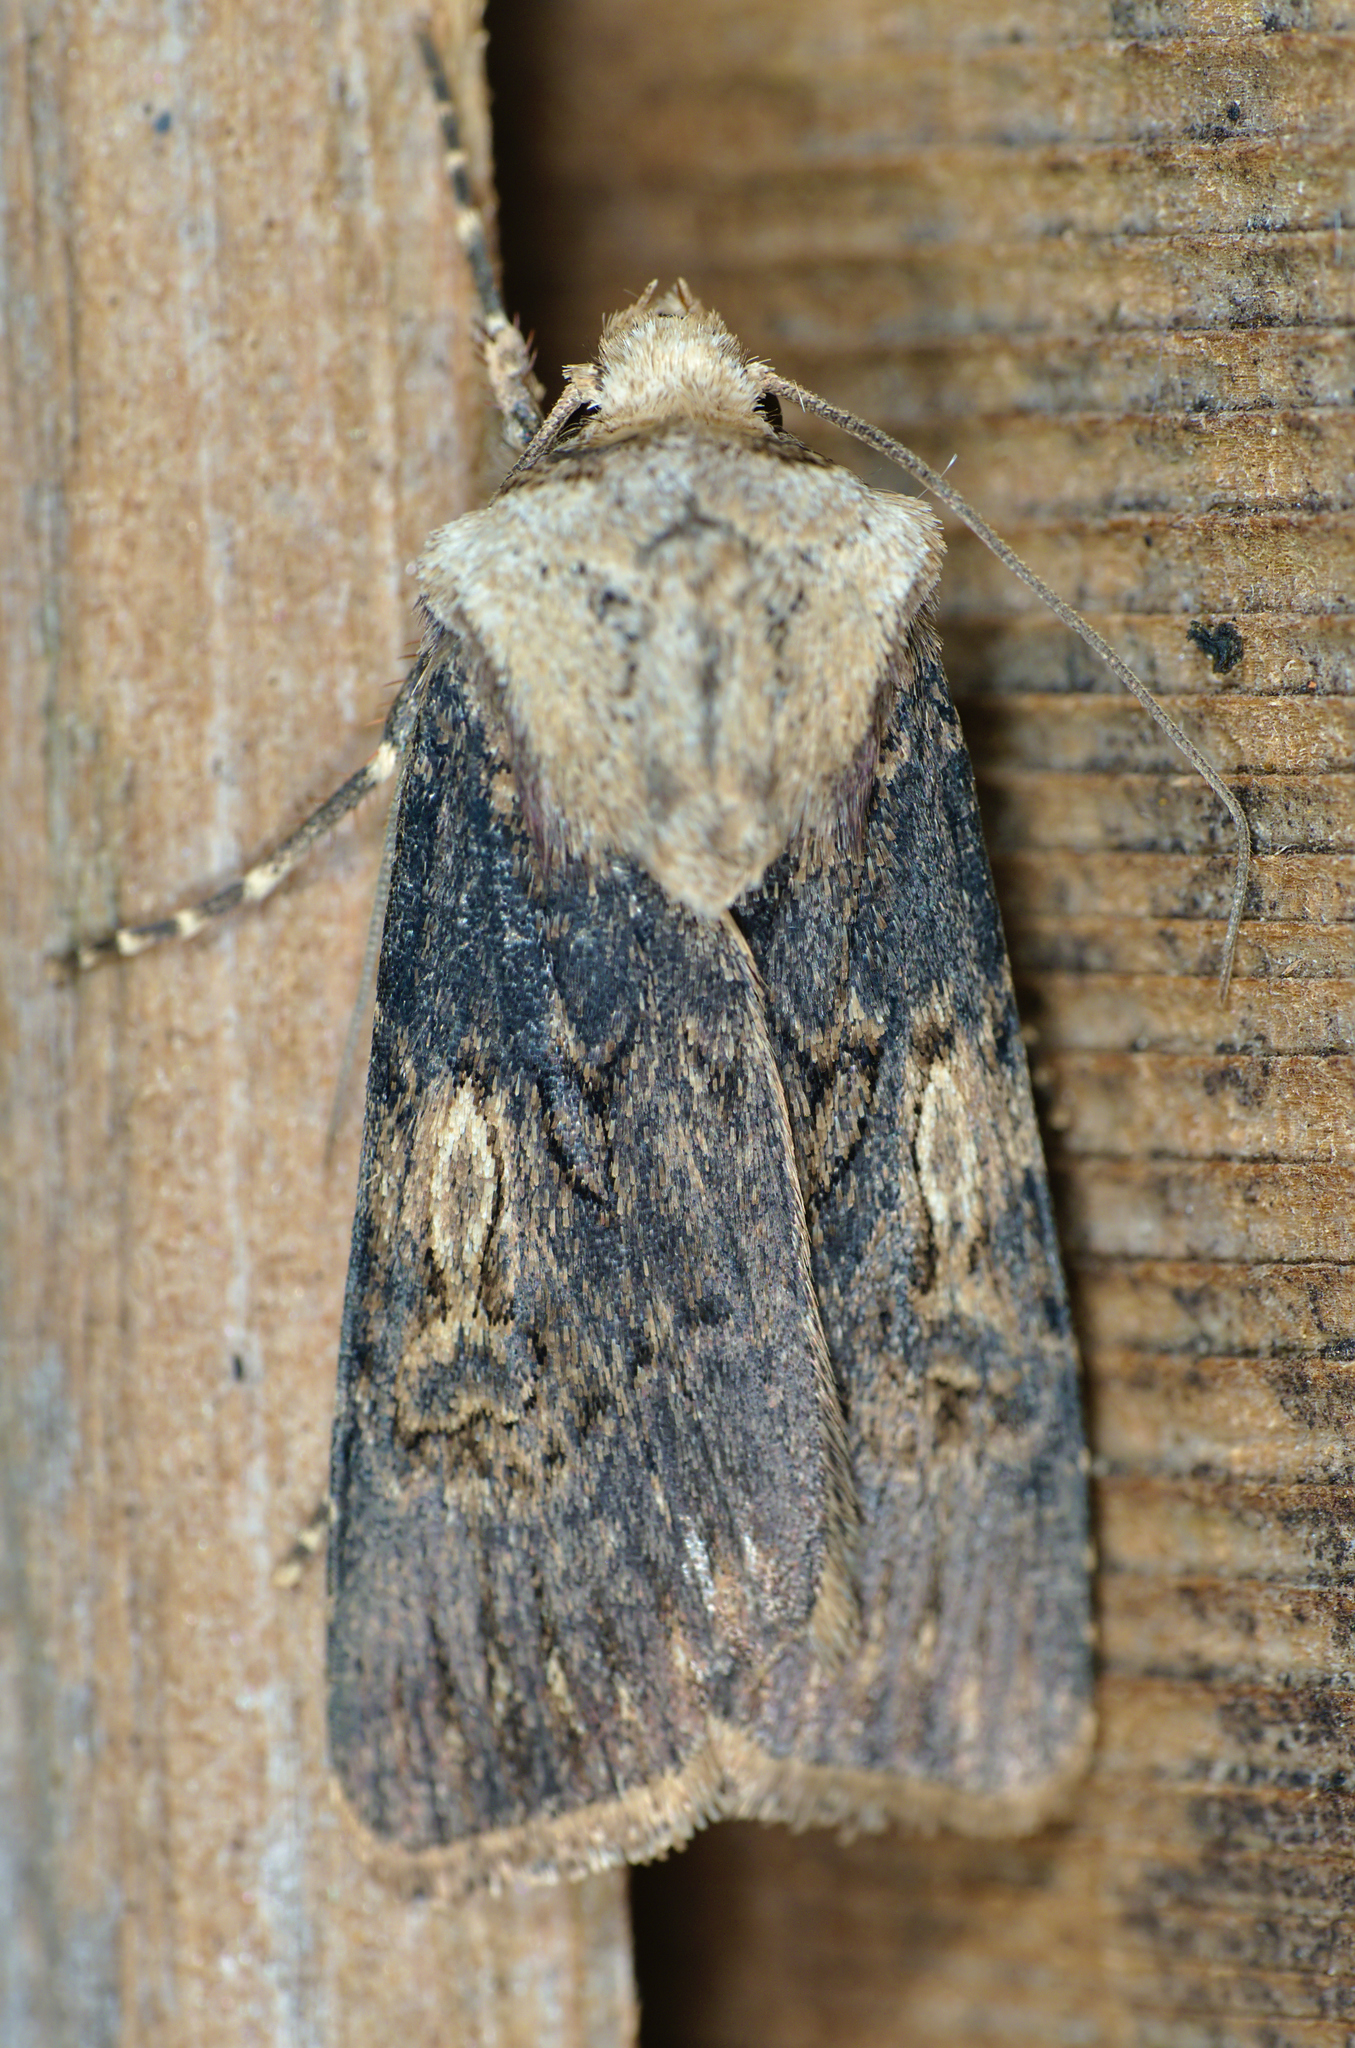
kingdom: Animalia
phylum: Arthropoda
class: Insecta
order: Lepidoptera
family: Noctuidae
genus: Agrotis
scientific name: Agrotis puta
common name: Shuttle-shaped dart
